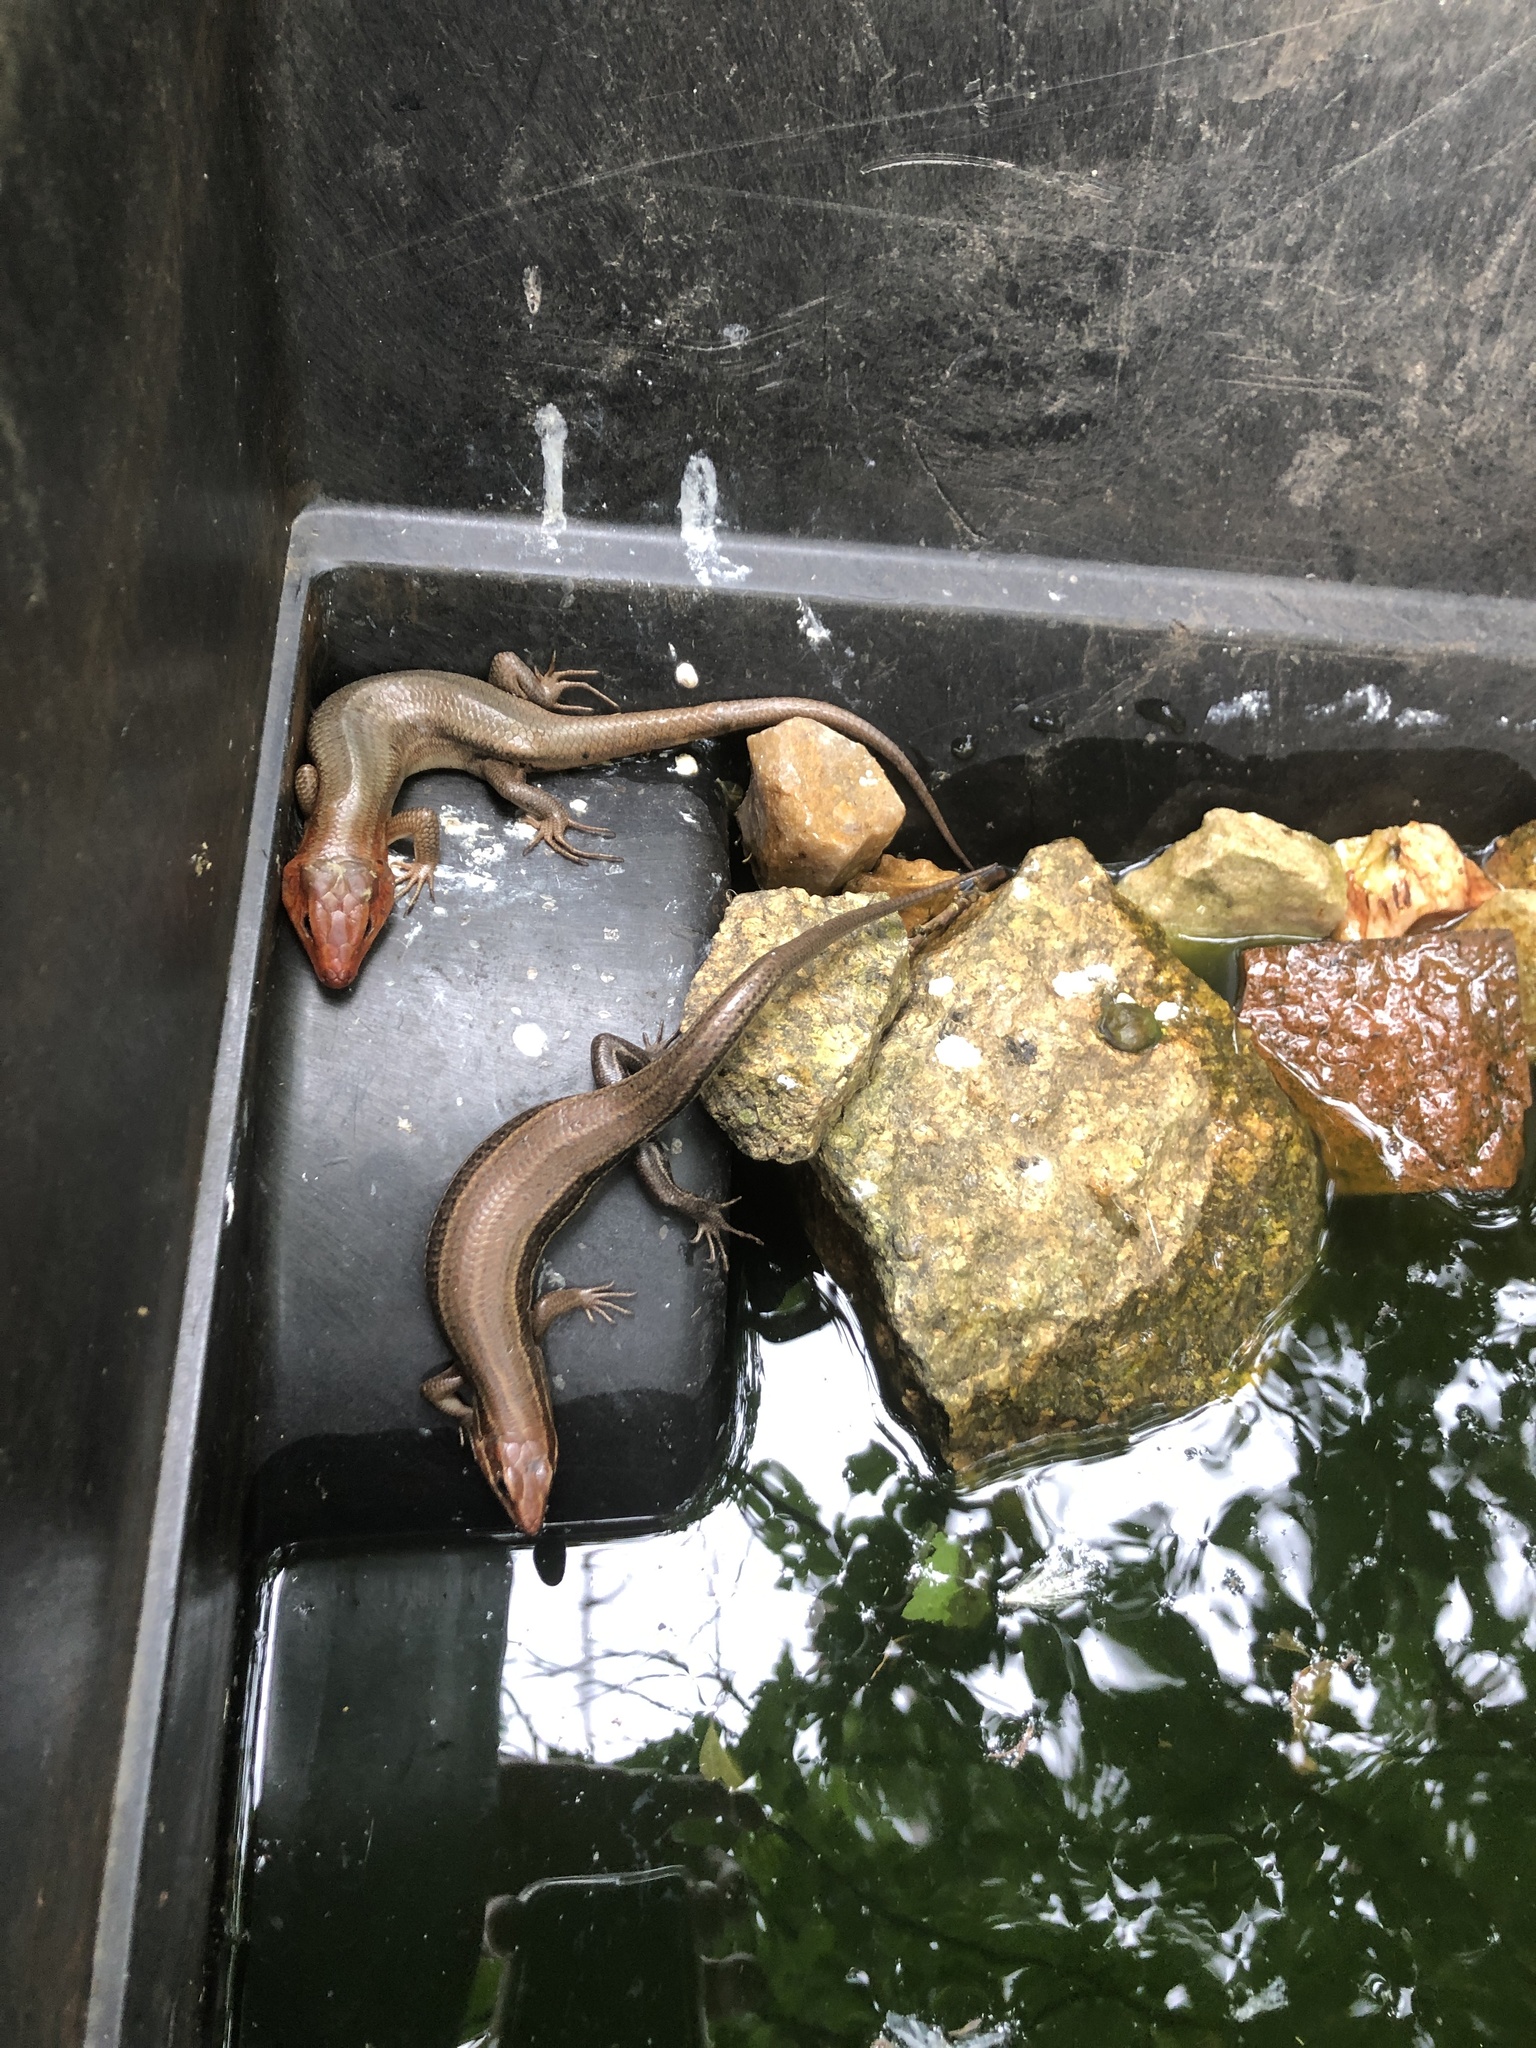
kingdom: Animalia
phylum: Chordata
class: Squamata
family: Scincidae
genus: Plestiodon
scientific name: Plestiodon laticeps
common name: Broadhead skink
